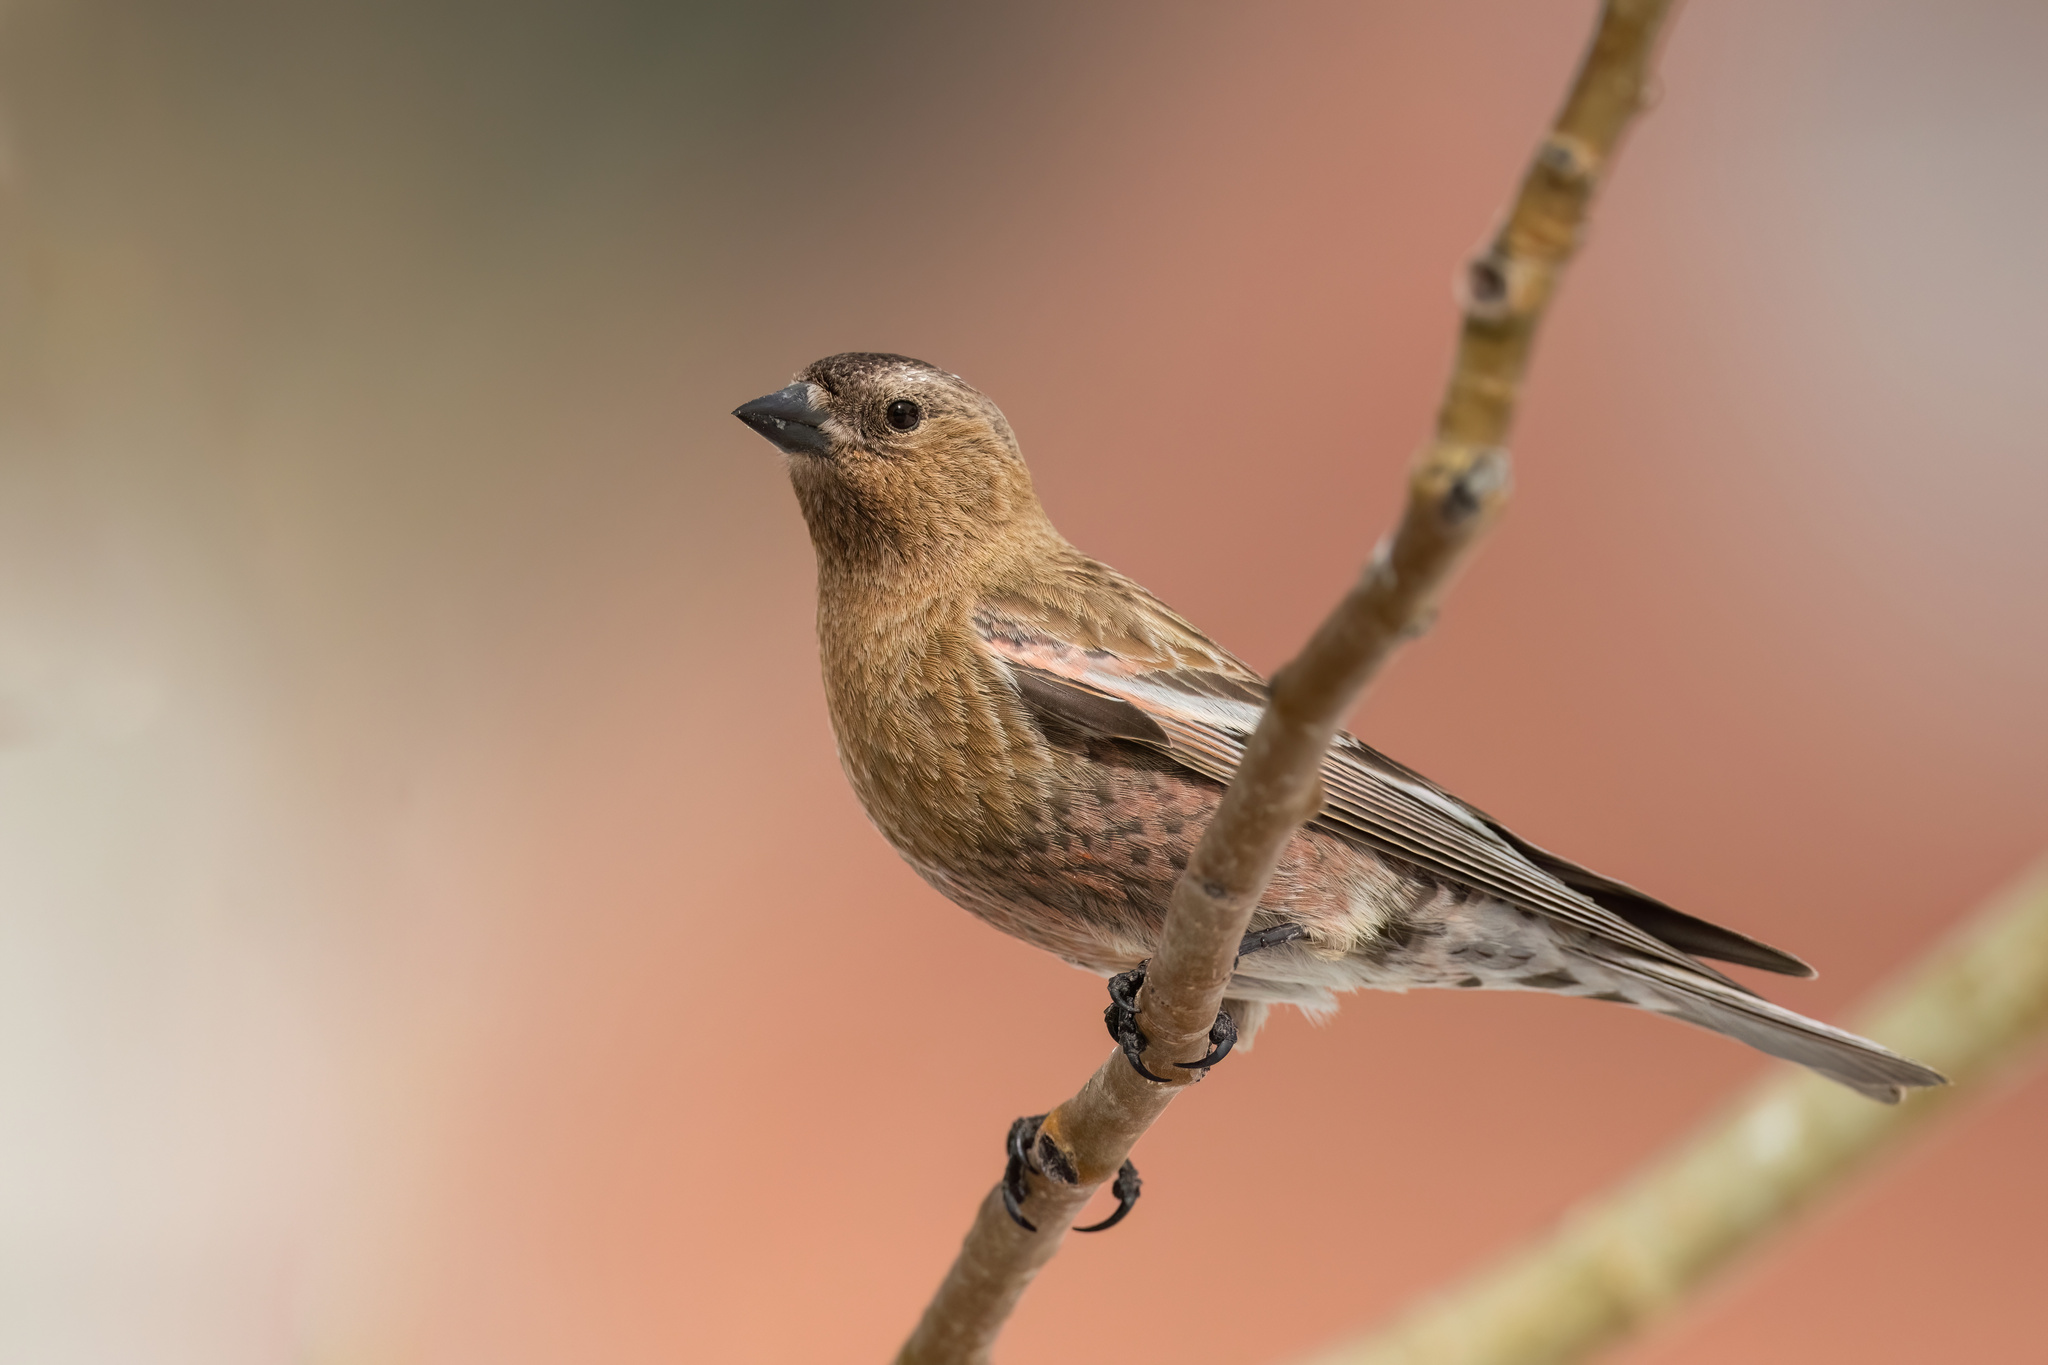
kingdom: Animalia
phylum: Chordata
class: Aves
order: Passeriformes
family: Fringillidae
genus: Leucosticte
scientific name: Leucosticte australis
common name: Brown-capped rosy-finch
